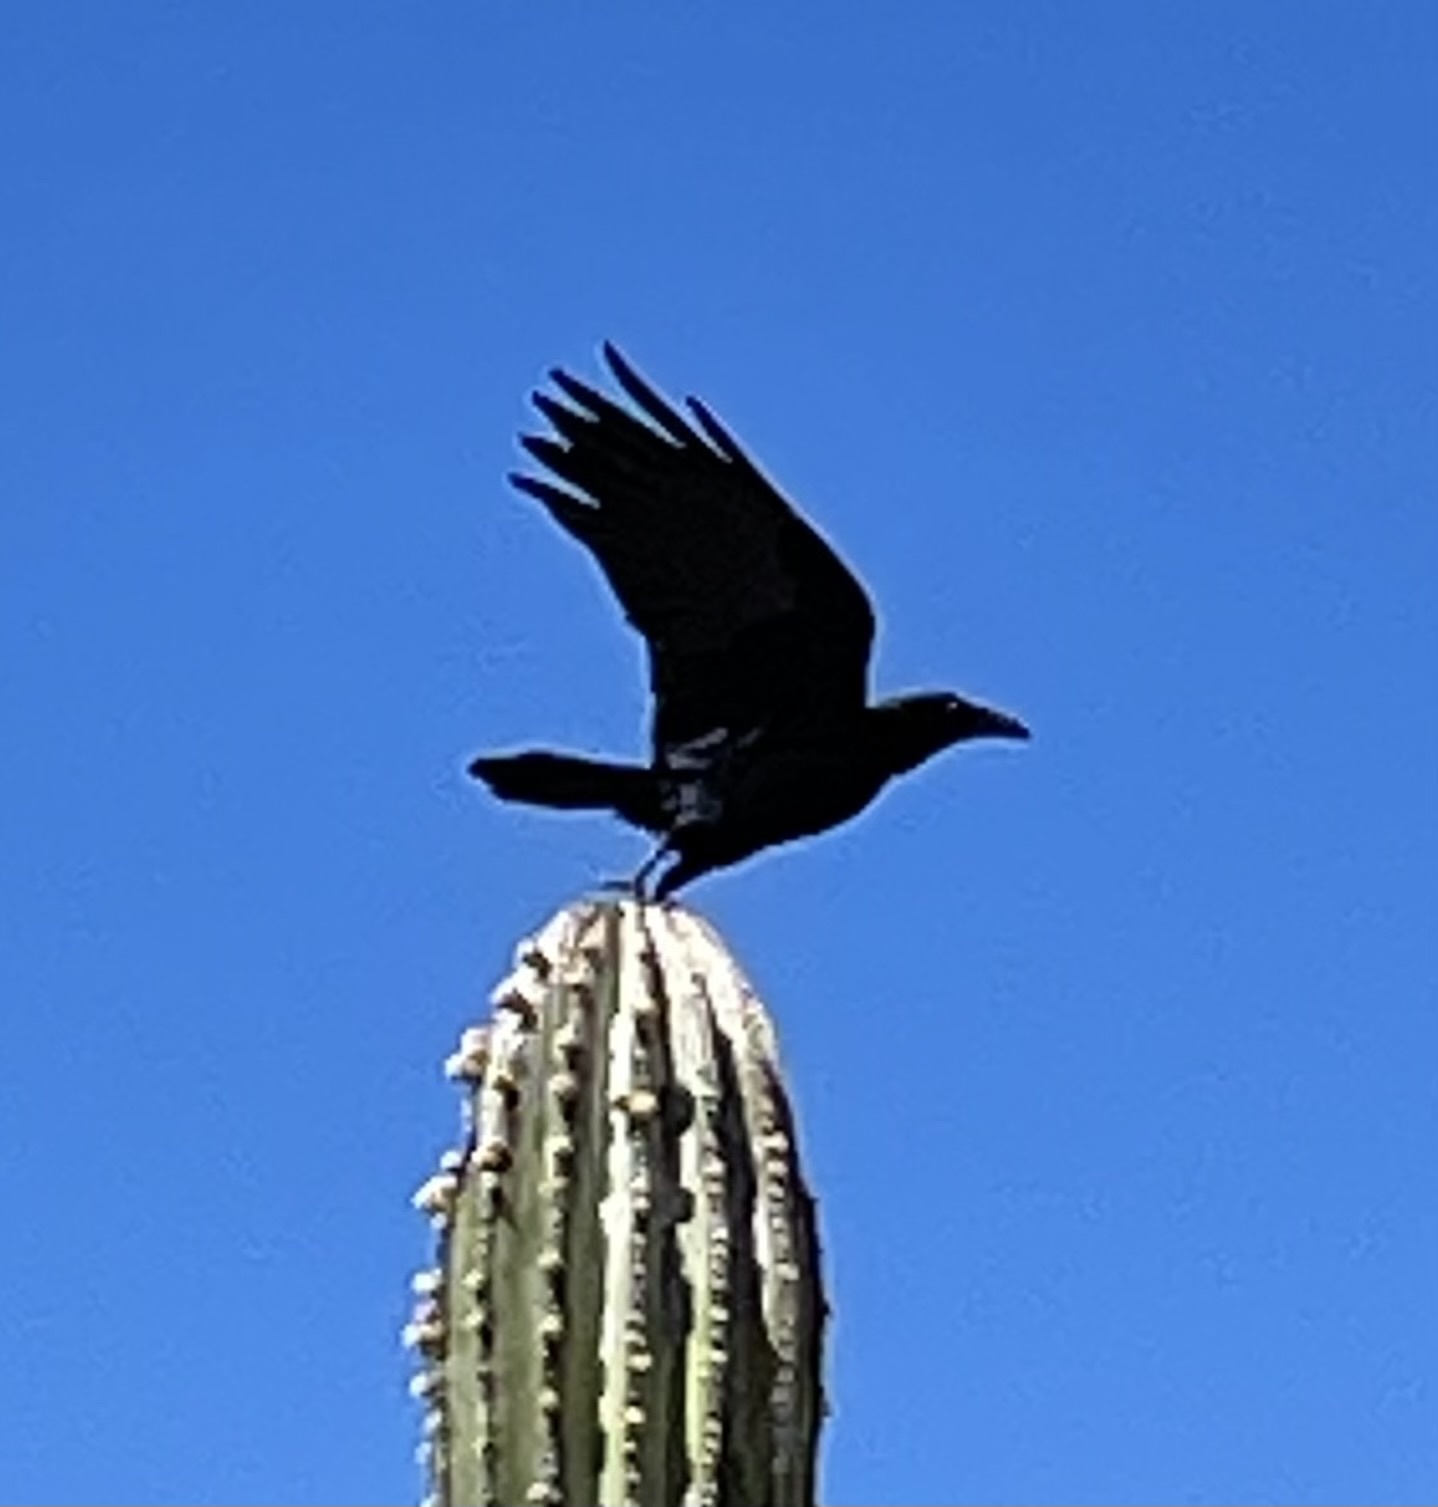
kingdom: Animalia
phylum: Chordata
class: Aves
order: Passeriformes
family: Corvidae
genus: Corvus
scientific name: Corvus corax
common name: Common raven
